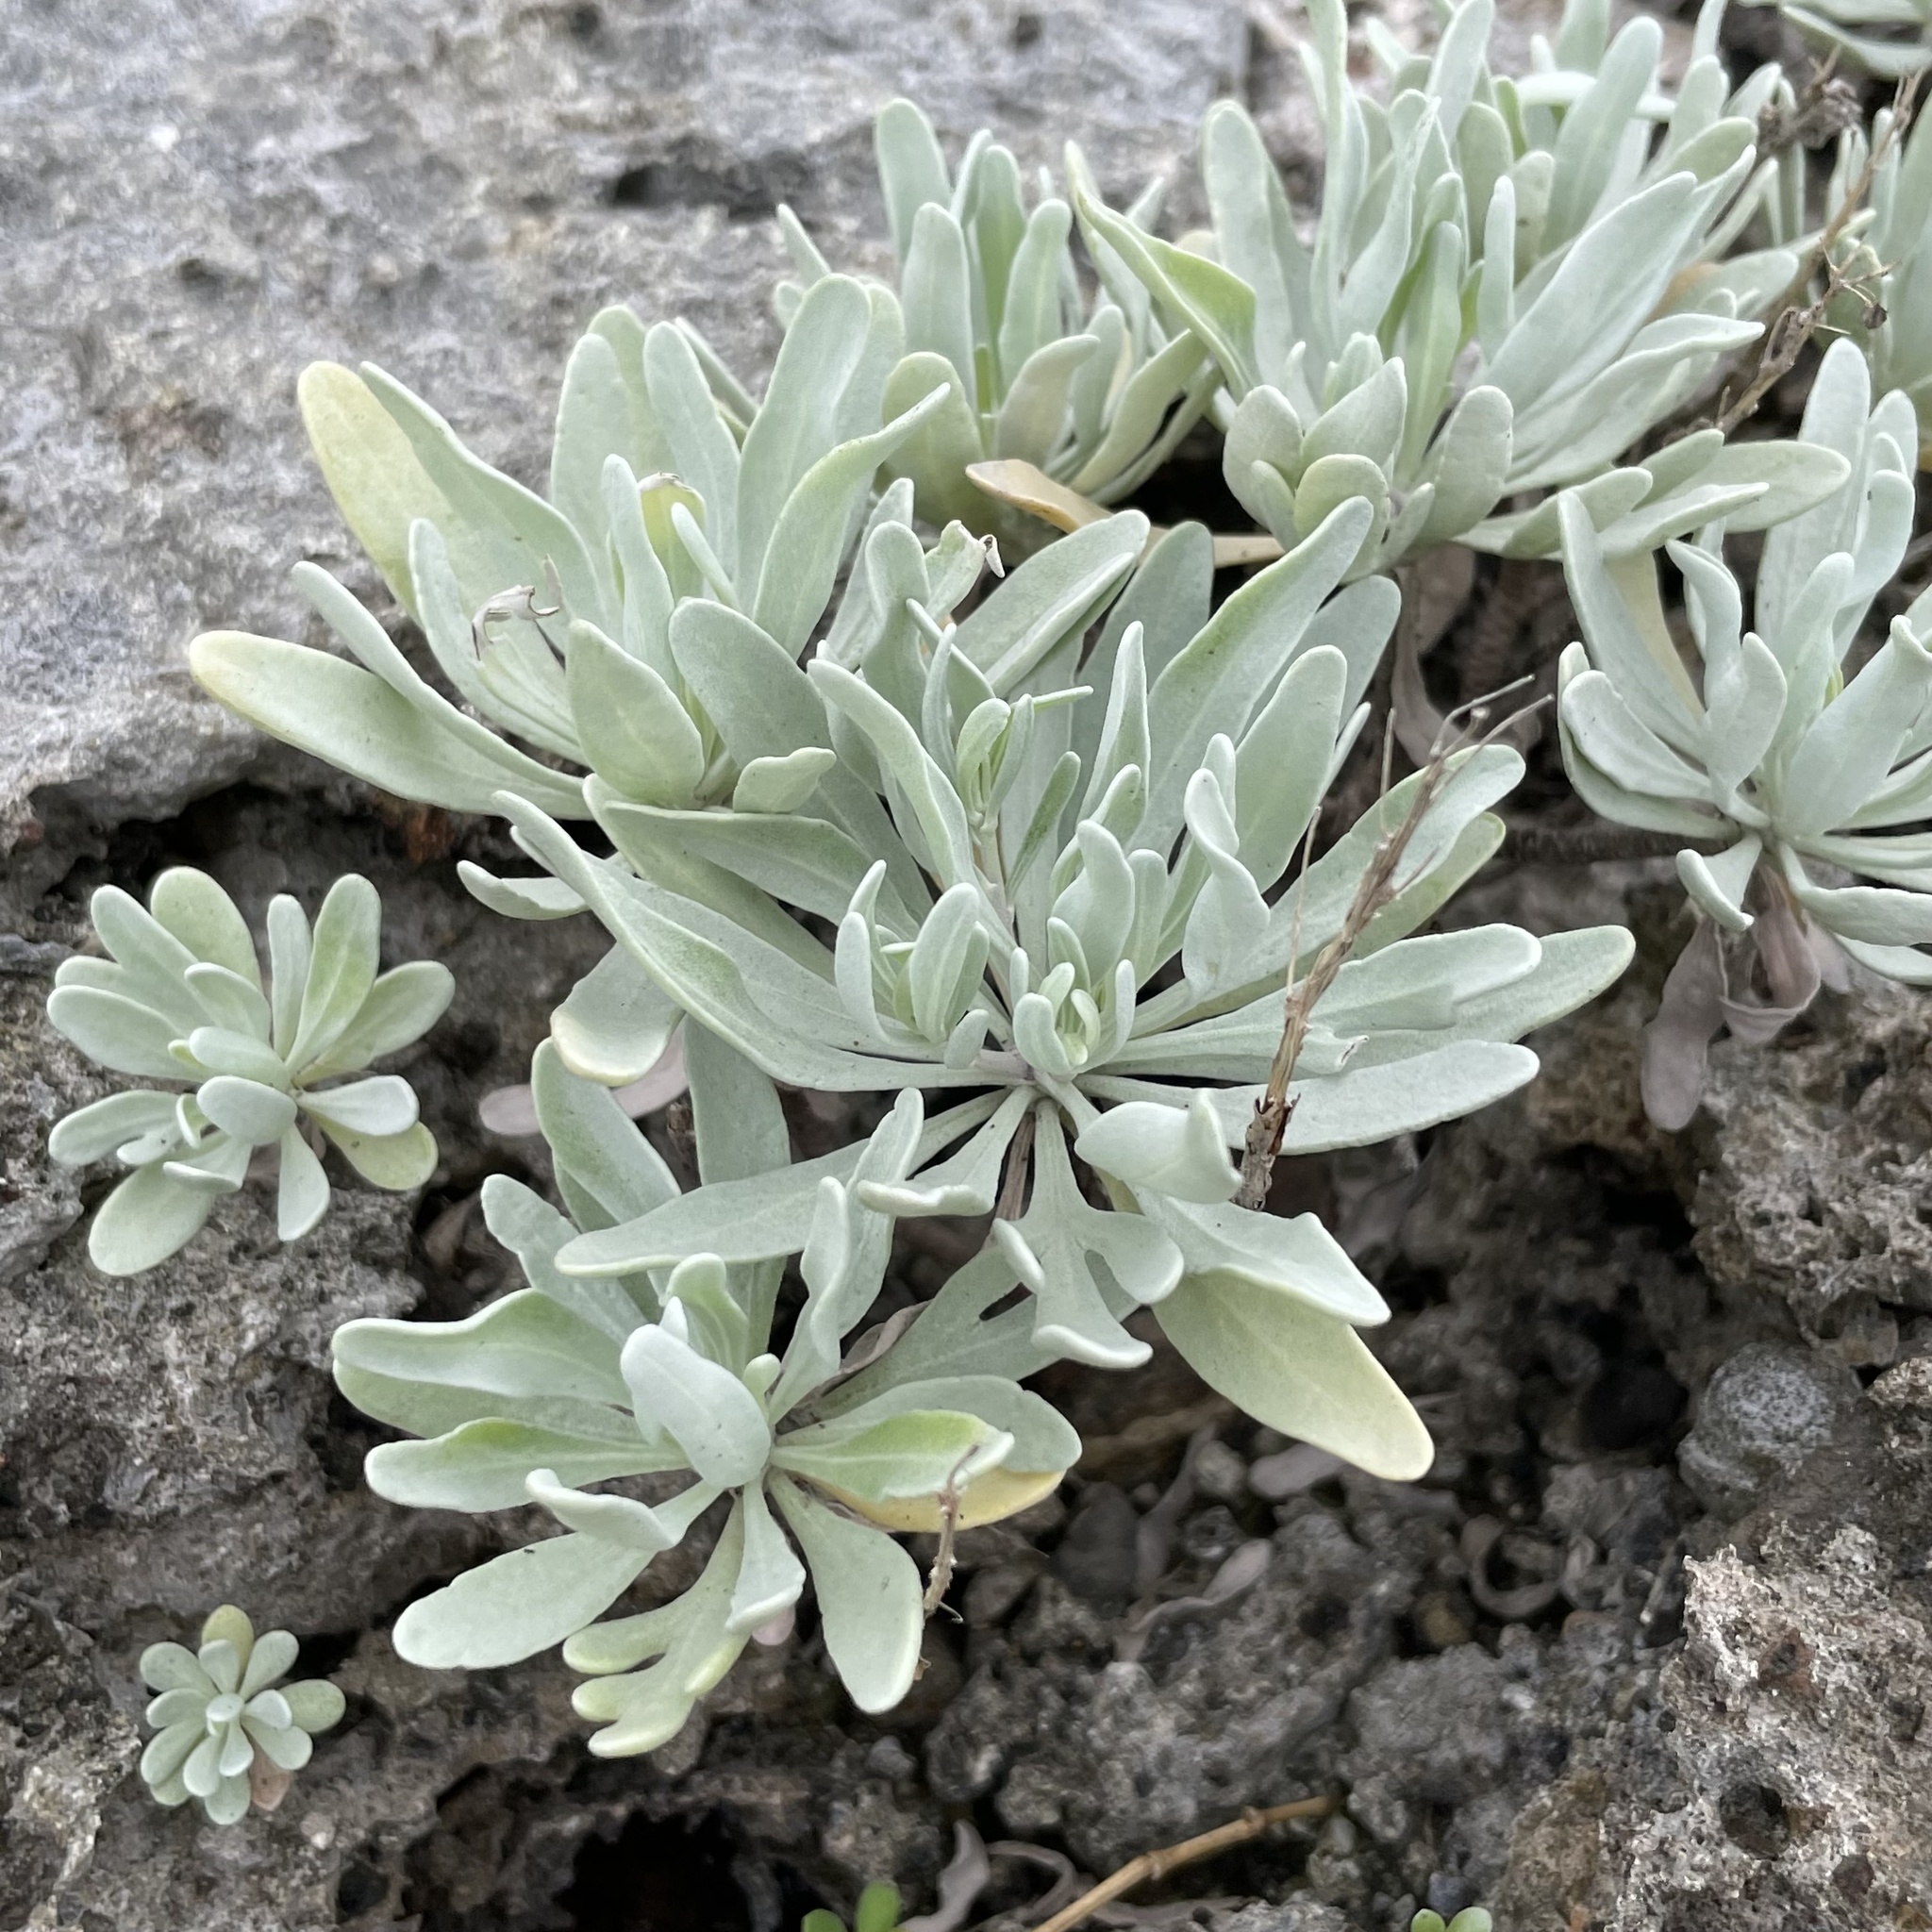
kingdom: Plantae
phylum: Tracheophyta
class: Magnoliopsida
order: Asterales
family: Asteraceae
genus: Crossostephium
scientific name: Crossostephium chinense
